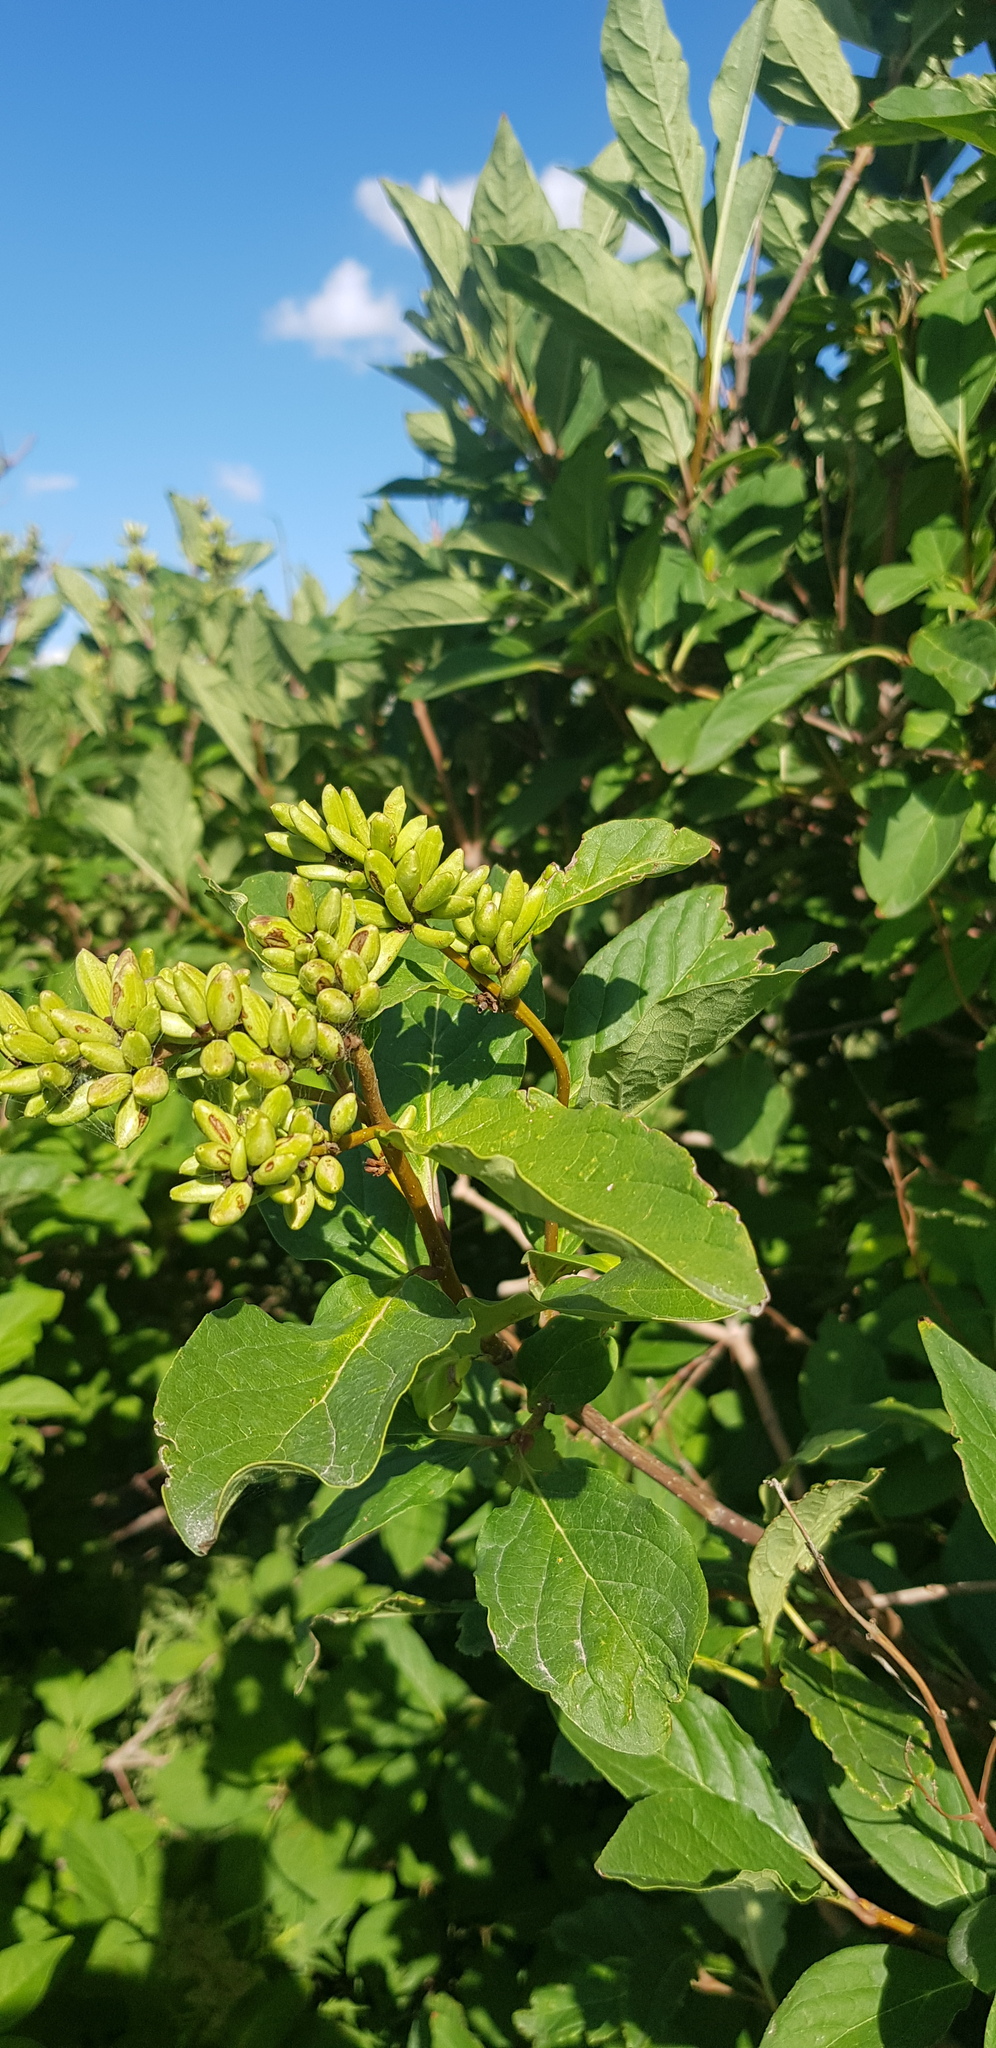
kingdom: Plantae
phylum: Tracheophyta
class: Magnoliopsida
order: Lamiales
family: Oleaceae
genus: Syringa
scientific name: Syringa vulgaris
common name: Common lilac
